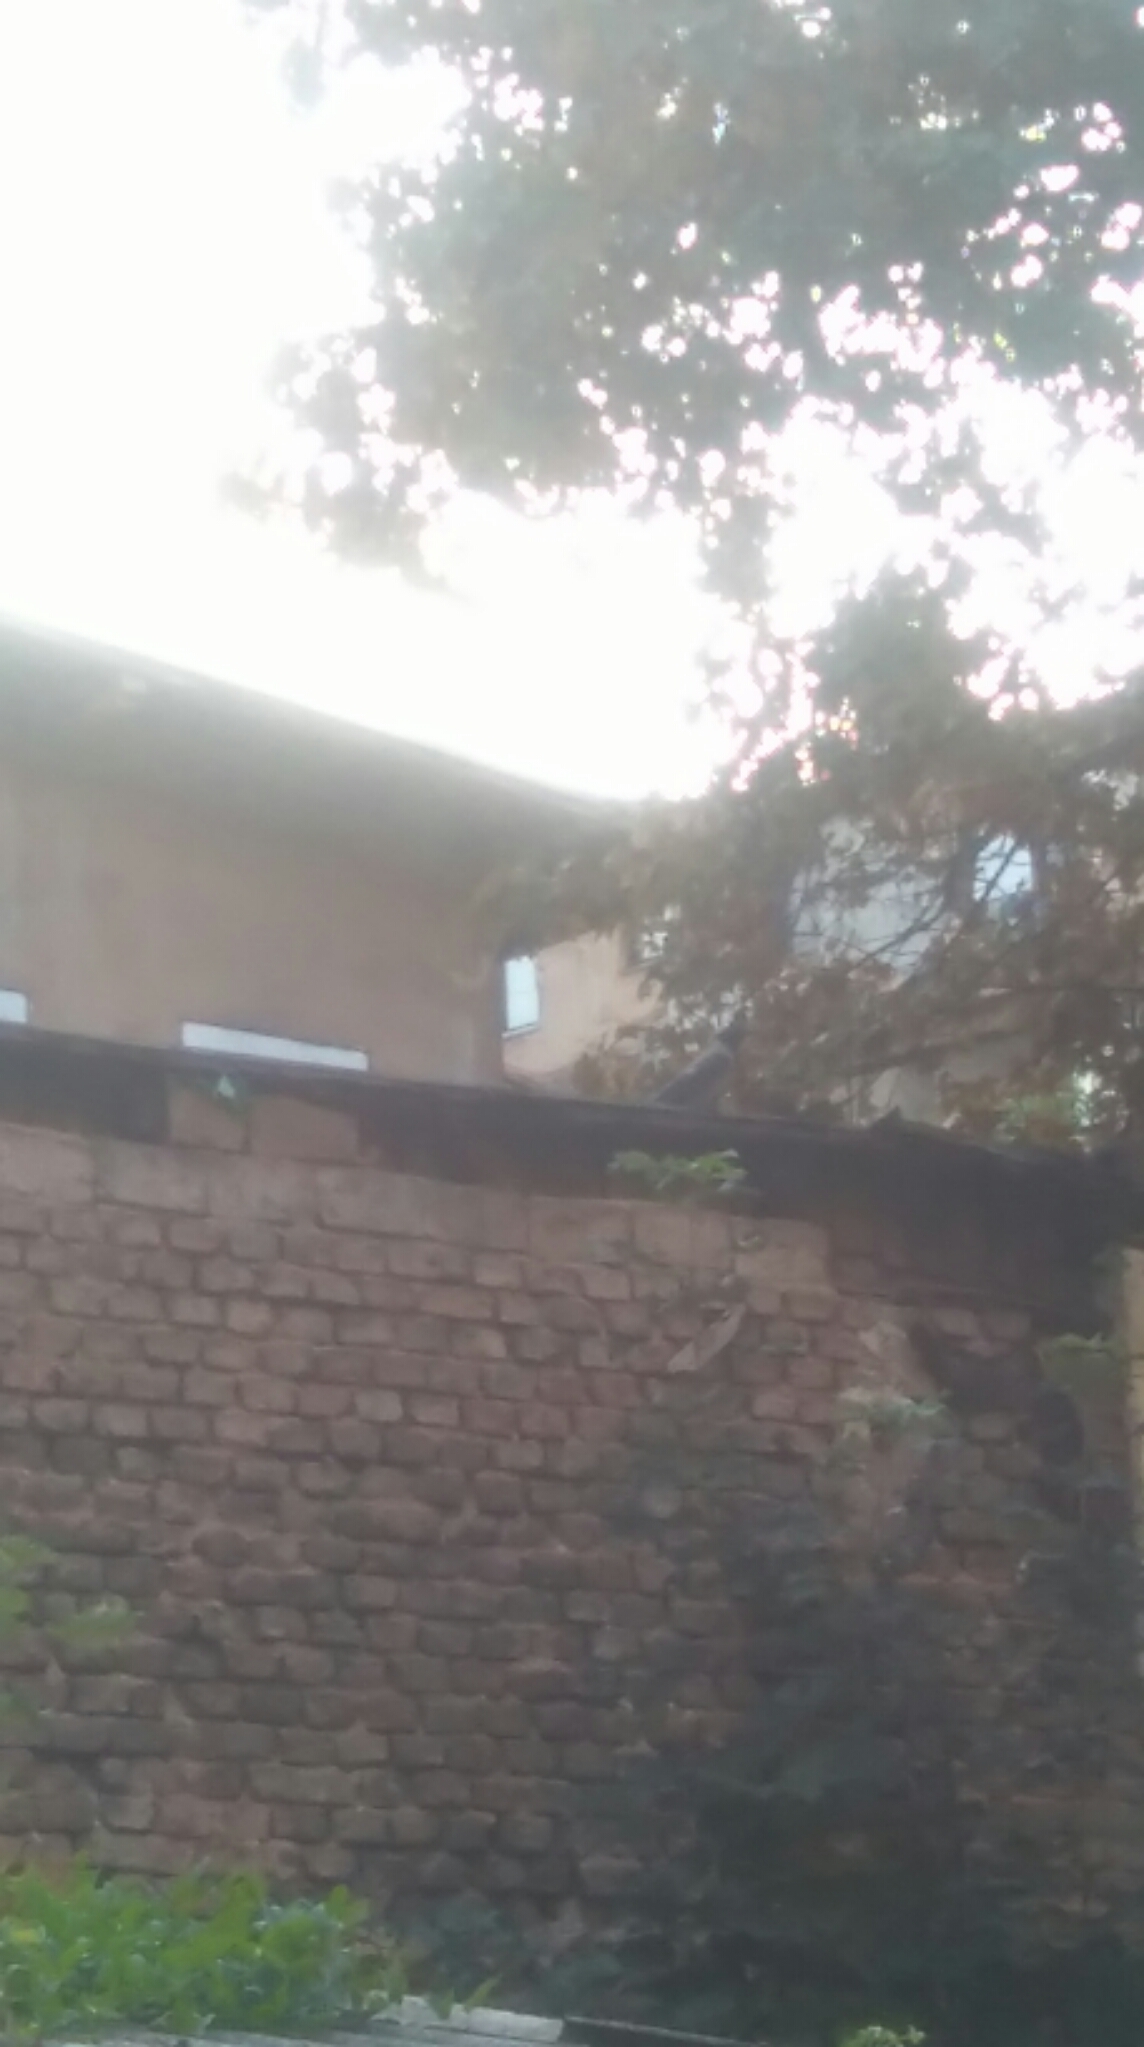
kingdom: Animalia
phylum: Chordata
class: Aves
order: Passeriformes
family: Corvidae
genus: Corvus
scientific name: Corvus cornix
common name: Hooded crow
